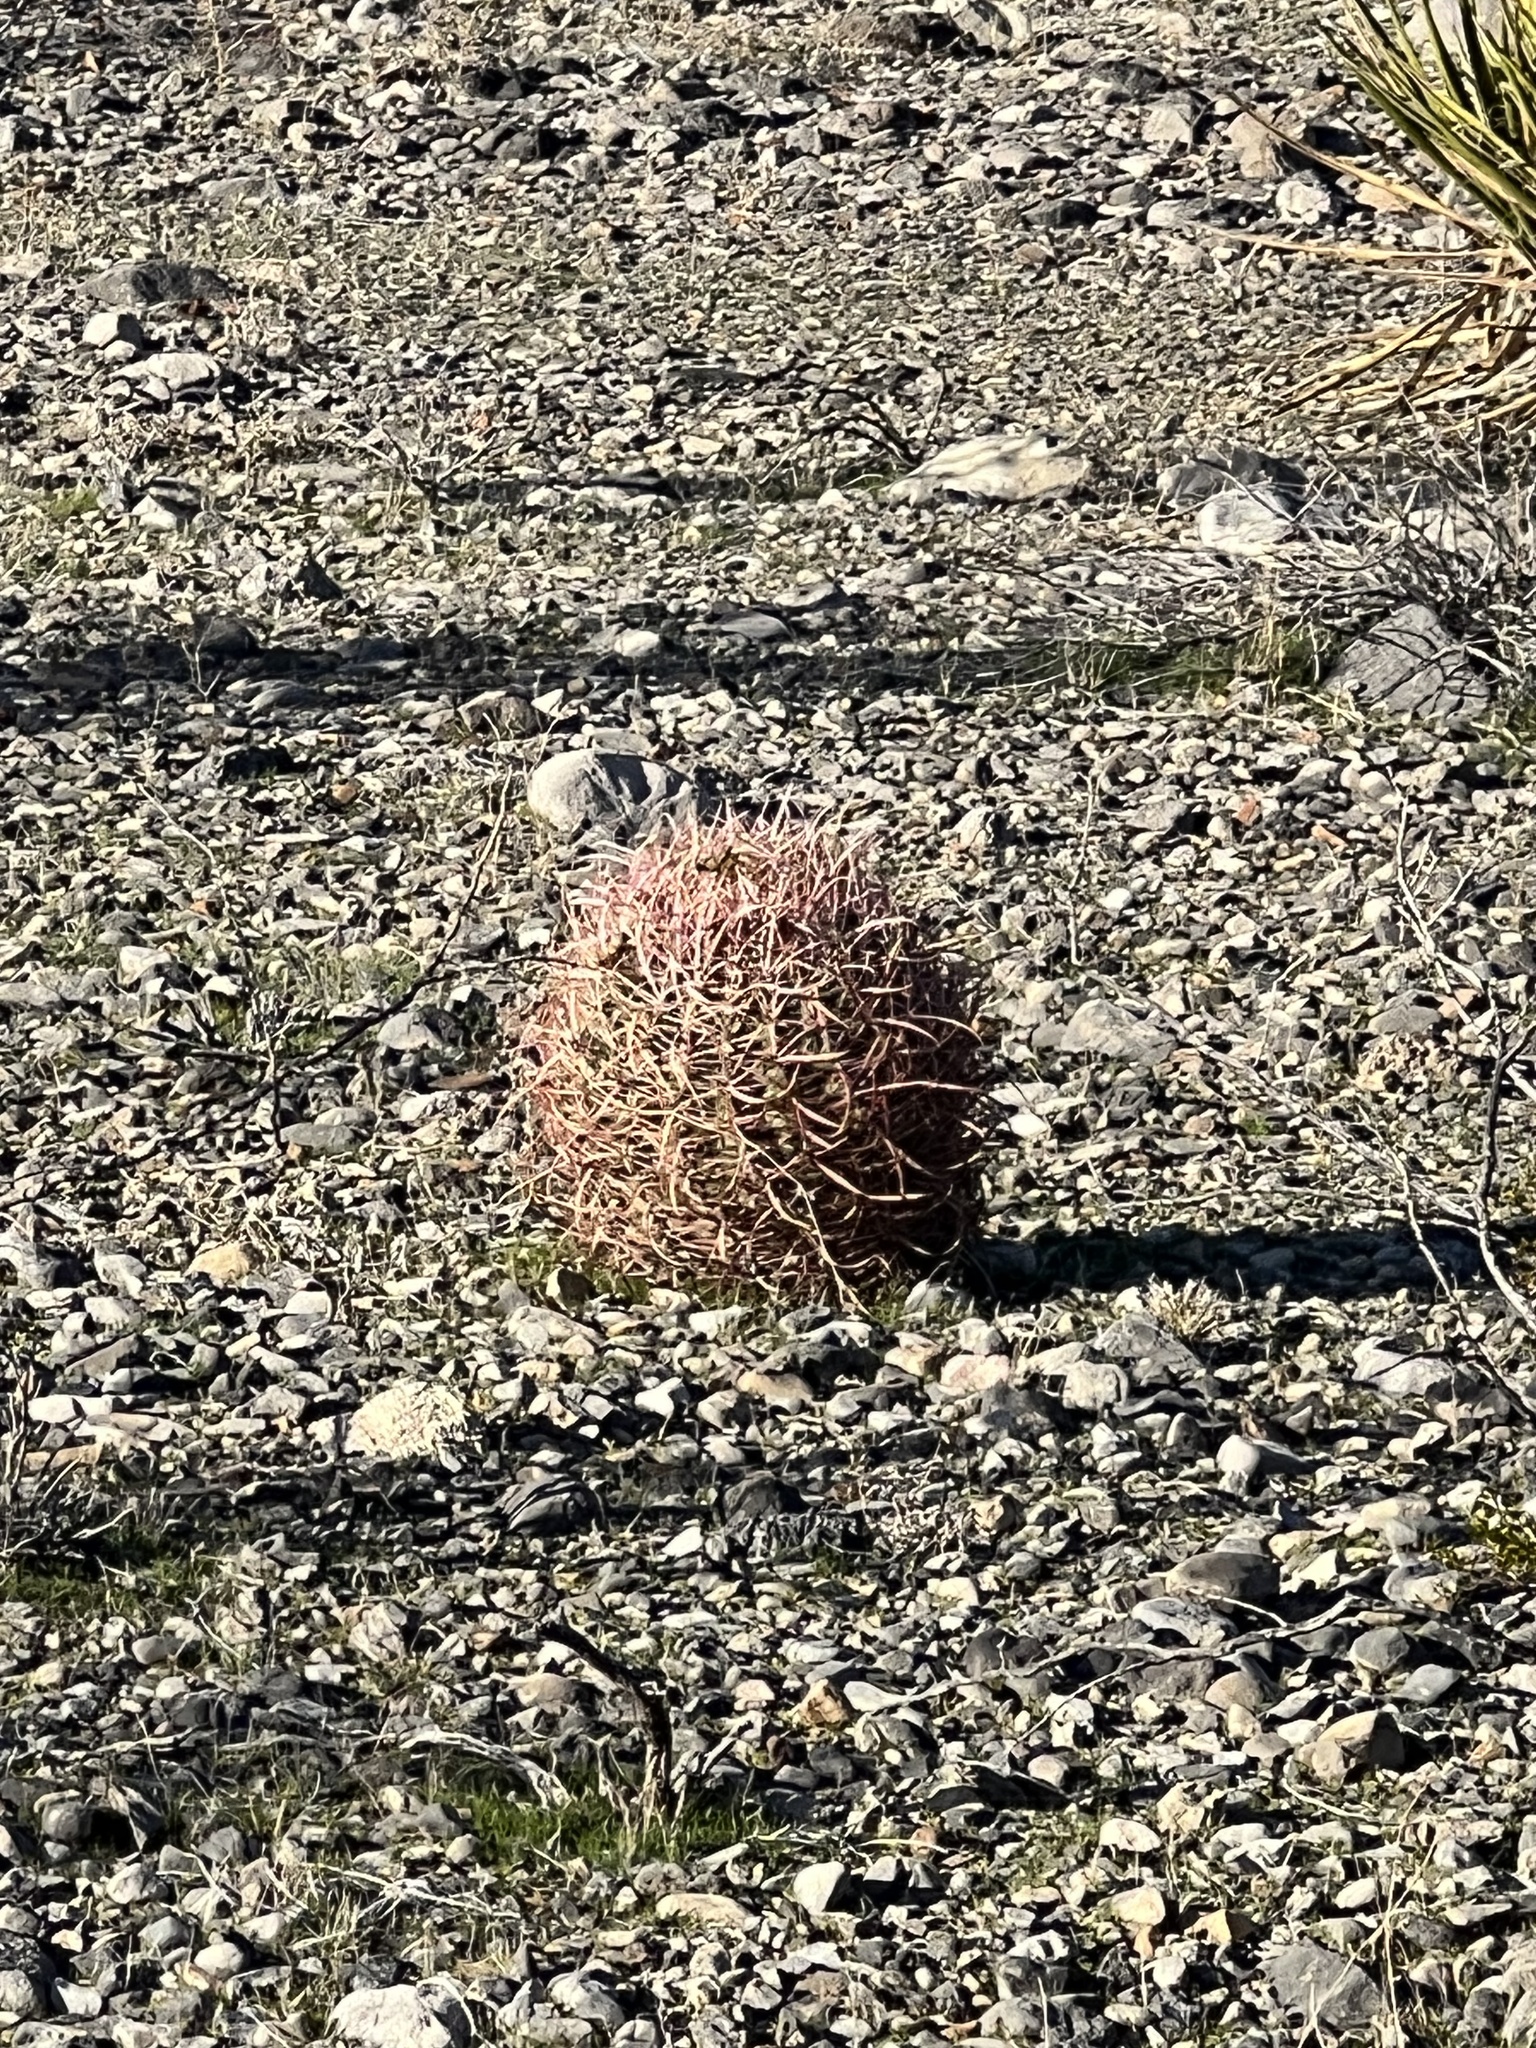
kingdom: Plantae
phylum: Tracheophyta
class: Magnoliopsida
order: Caryophyllales
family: Cactaceae
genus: Ferocactus
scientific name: Ferocactus cylindraceus
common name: California barrel cactus
